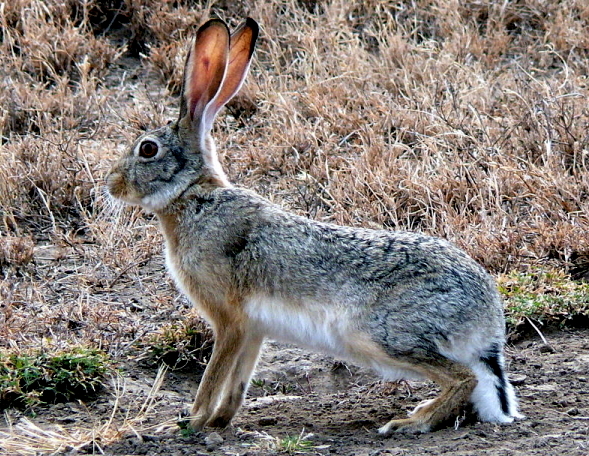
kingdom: Animalia
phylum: Chordata
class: Mammalia
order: Lagomorpha
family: Leporidae
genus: Lepus
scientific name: Lepus capensis
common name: Cape hare
